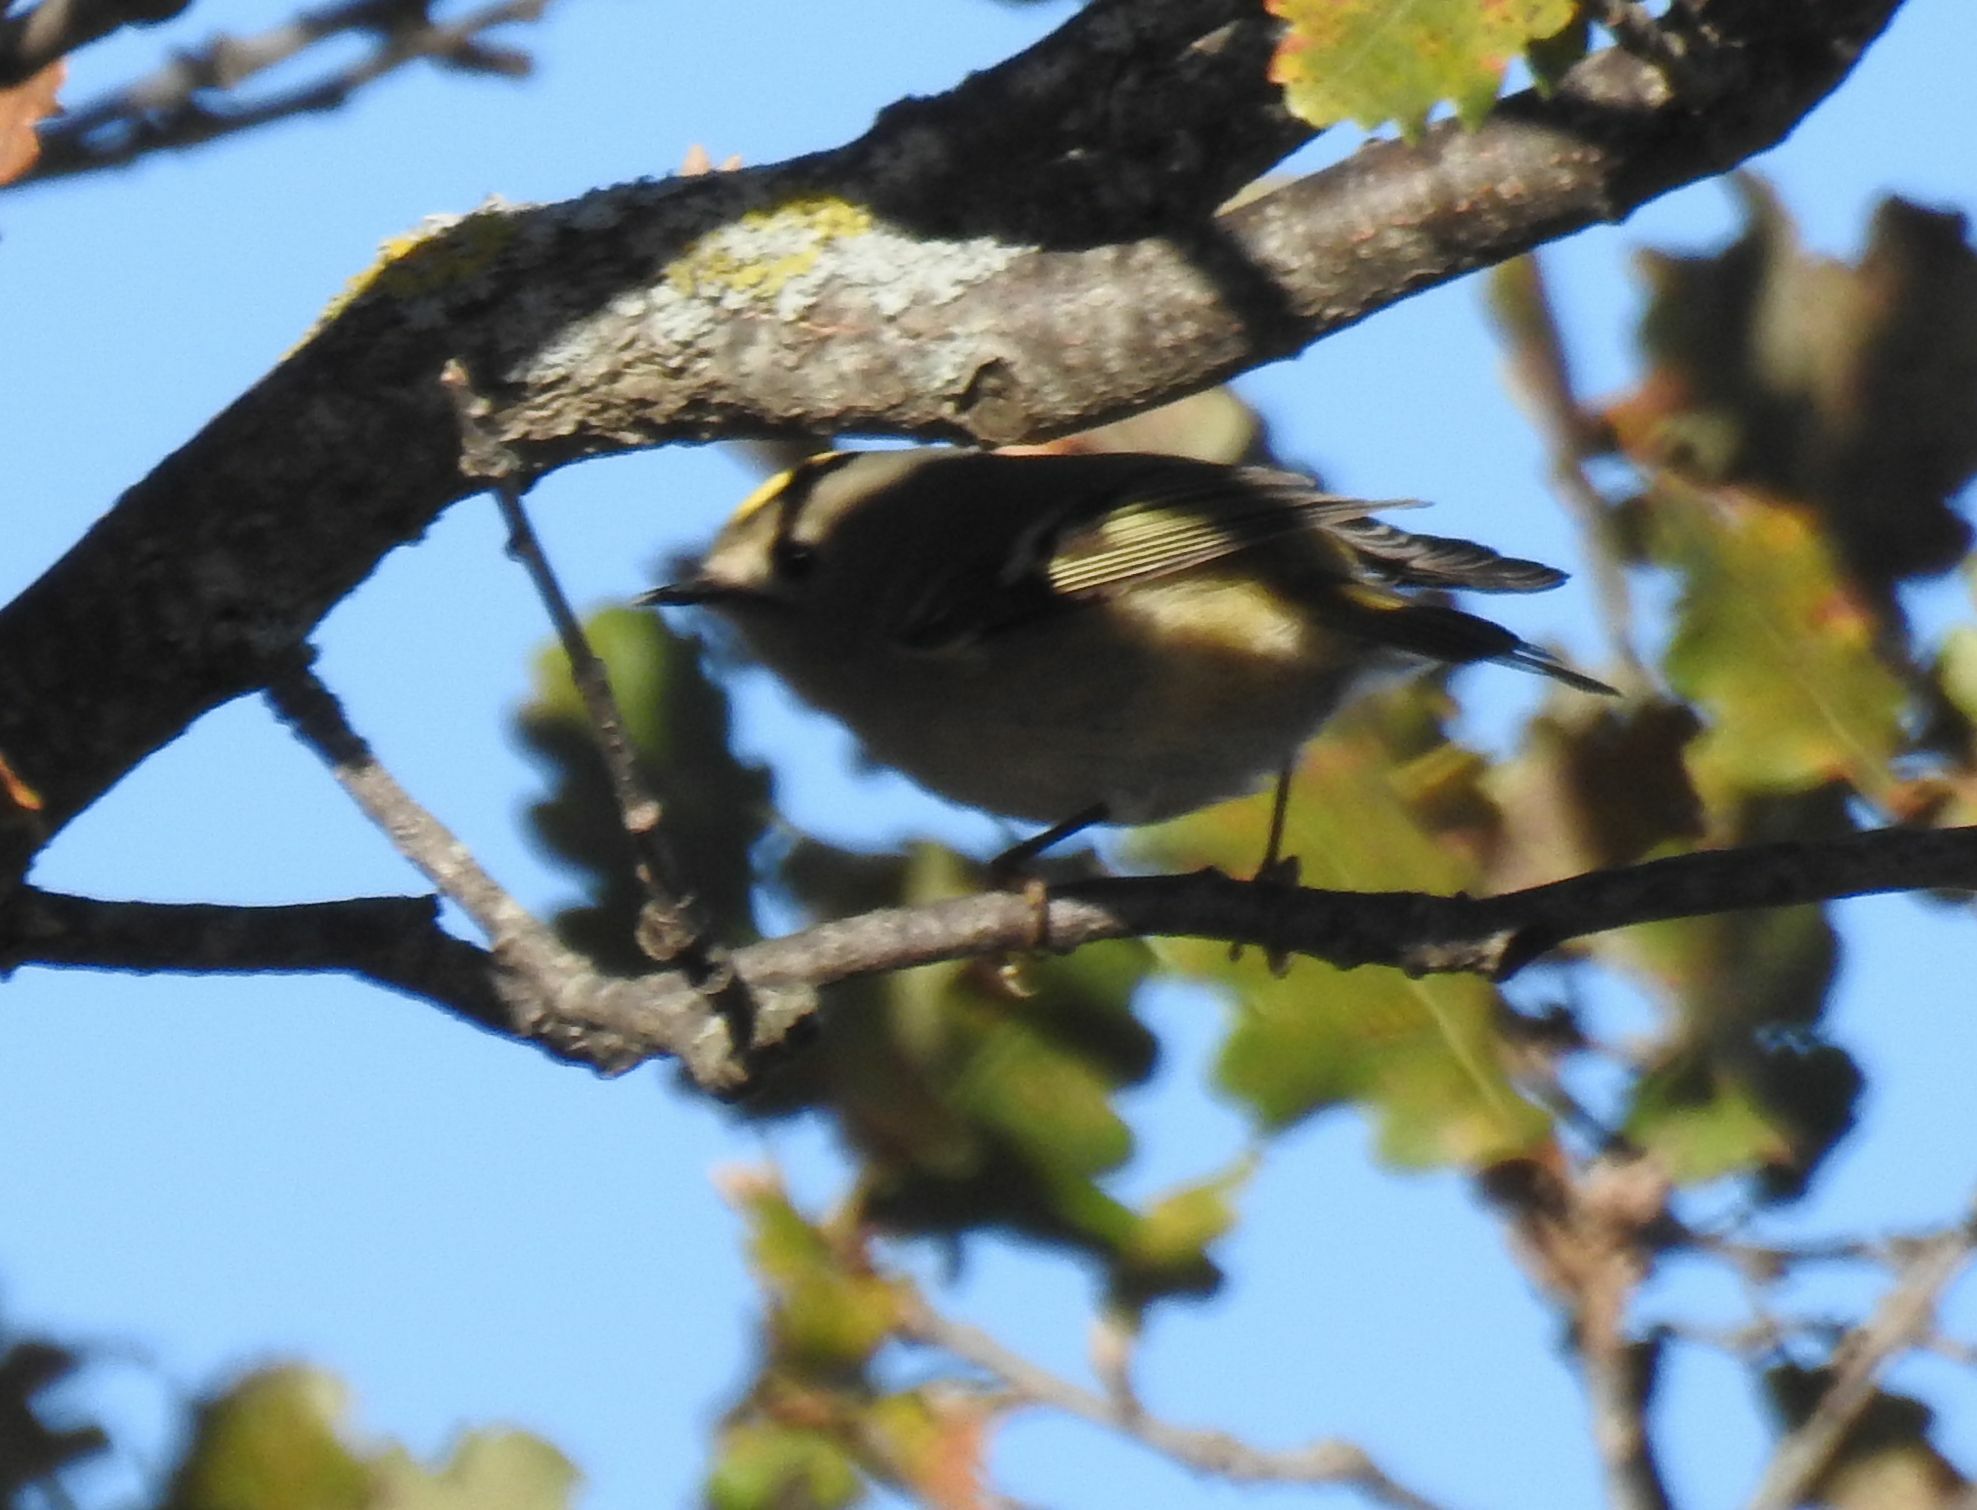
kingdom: Animalia
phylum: Chordata
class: Aves
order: Passeriformes
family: Regulidae
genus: Regulus
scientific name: Regulus regulus
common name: Goldcrest
